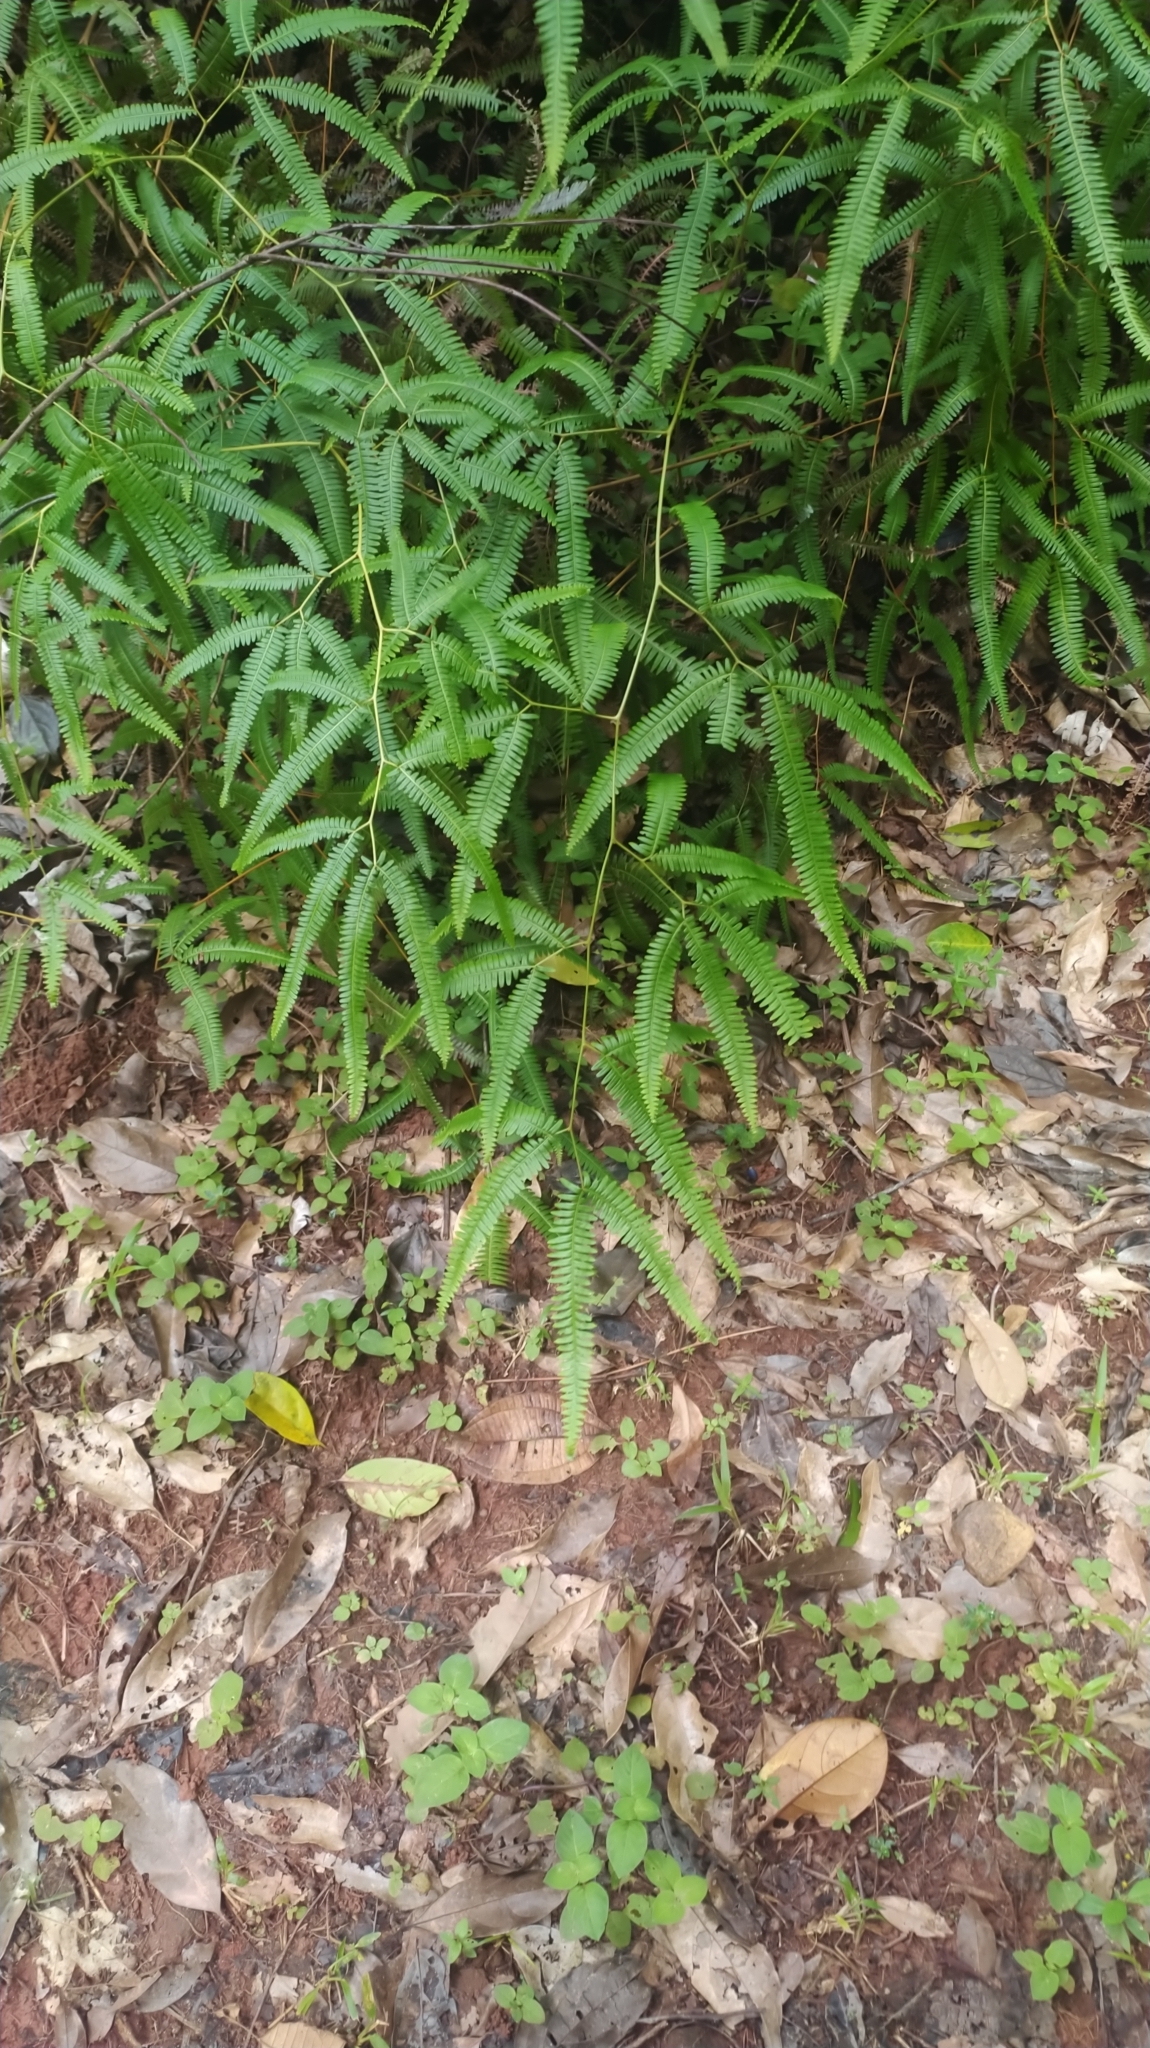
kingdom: Plantae
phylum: Tracheophyta
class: Polypodiopsida
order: Gleicheniales
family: Gleicheniaceae
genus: Gleichenella
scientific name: Gleichenella pectinata
